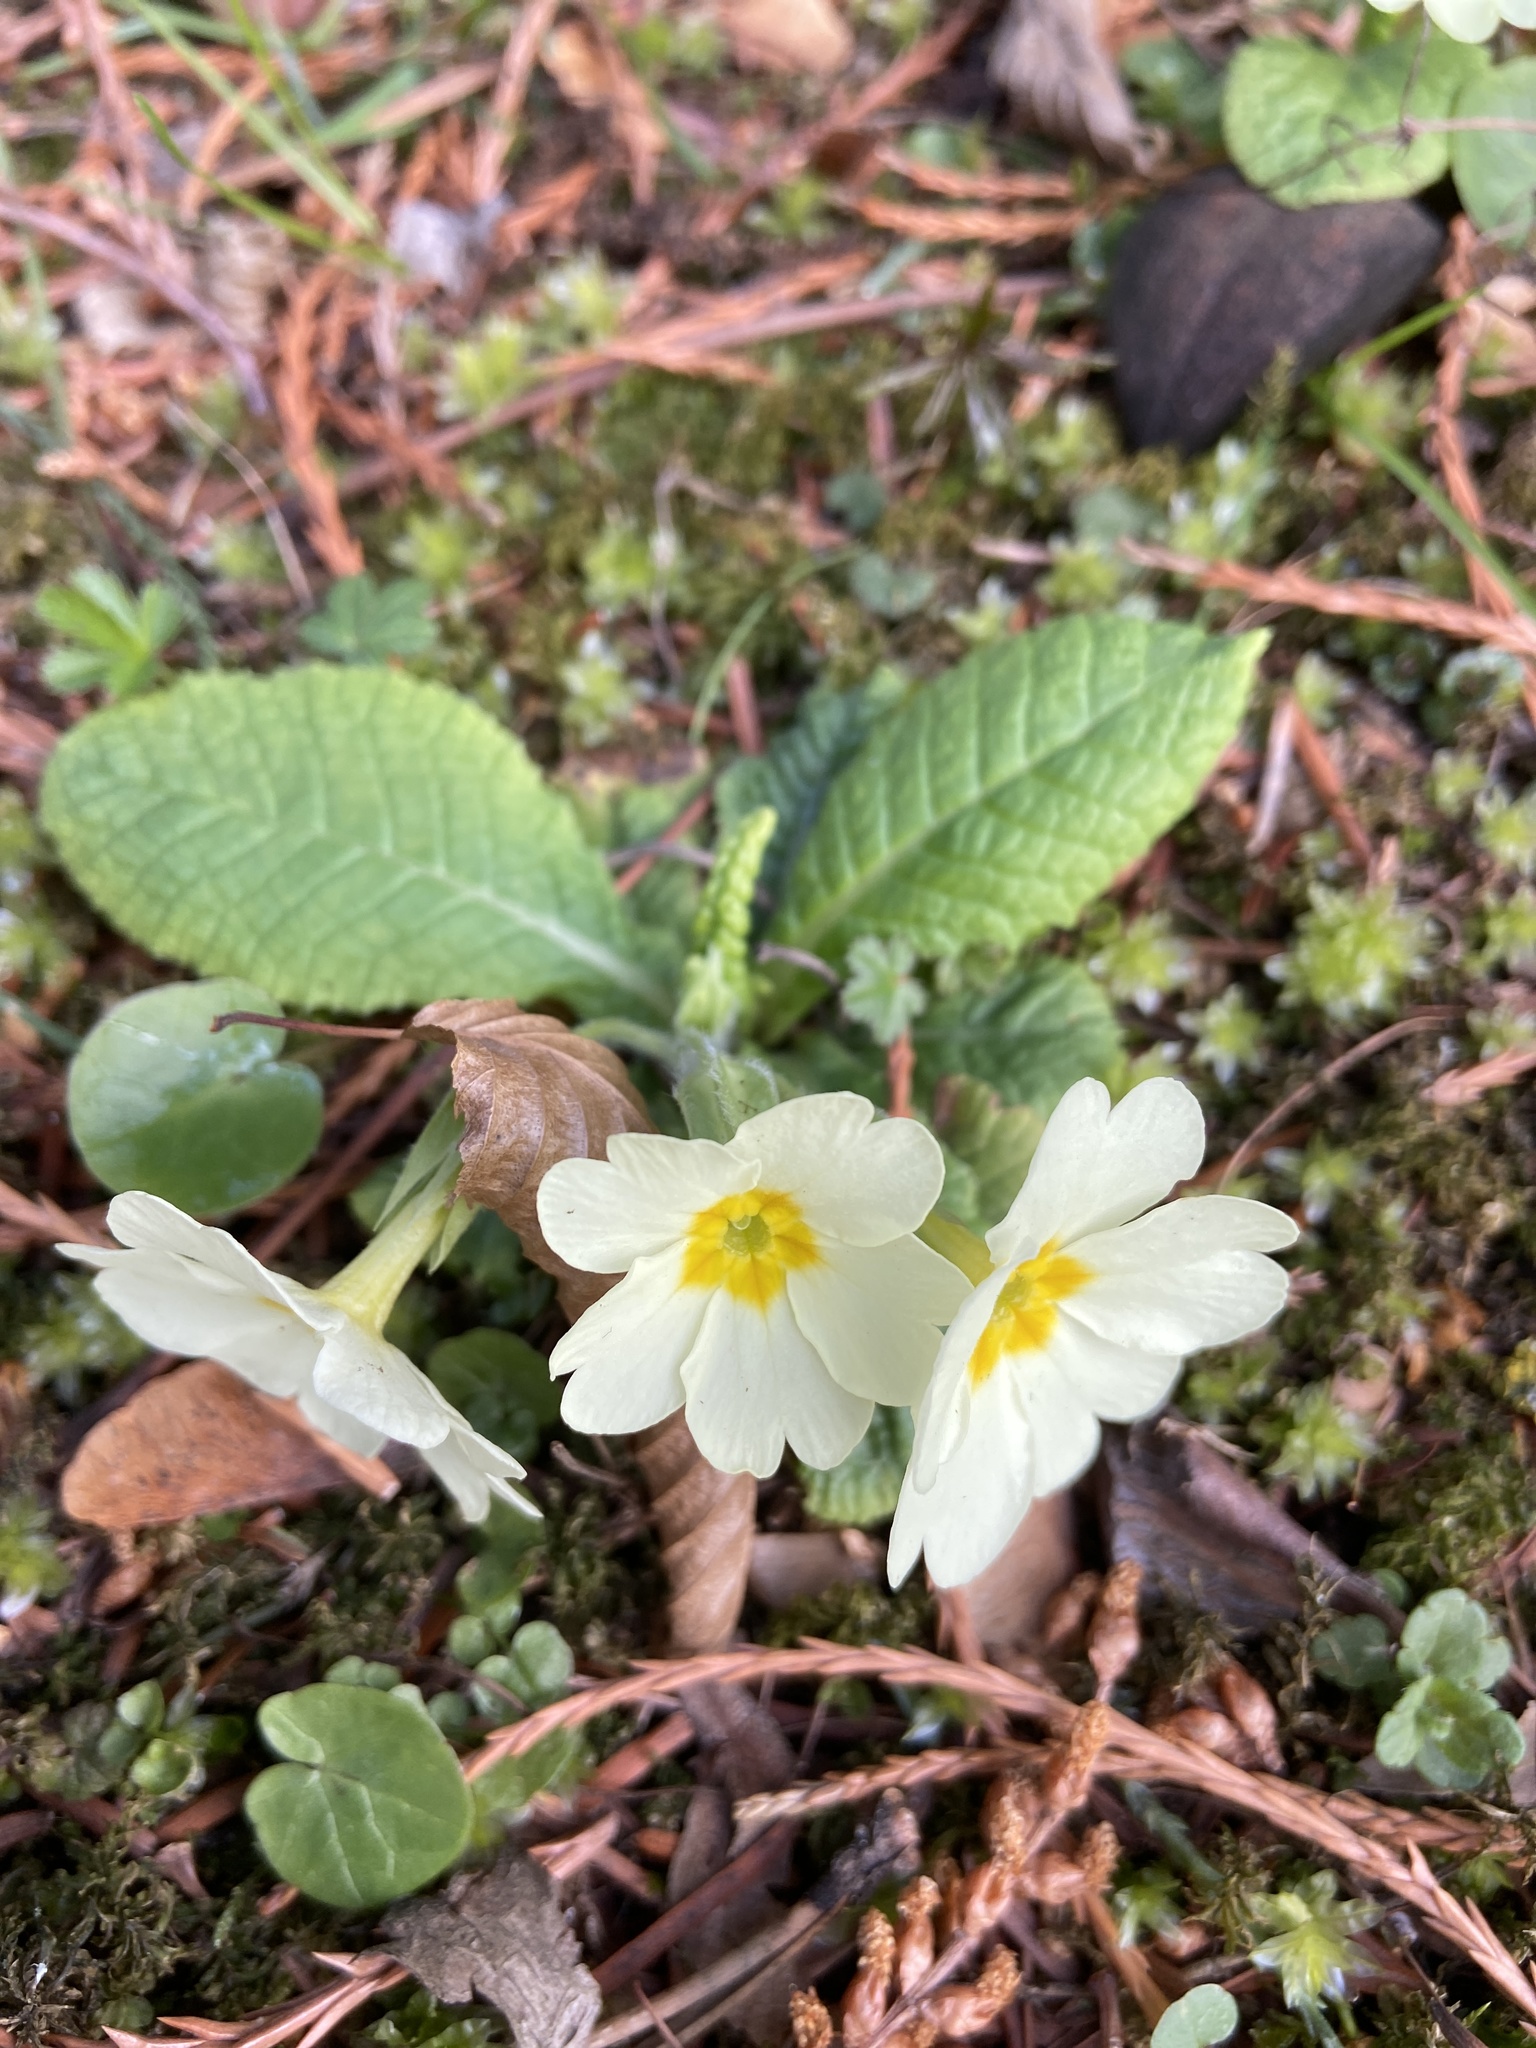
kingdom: Plantae
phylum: Tracheophyta
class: Magnoliopsida
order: Ericales
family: Primulaceae
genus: Primula
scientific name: Primula vulgaris
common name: Primrose
